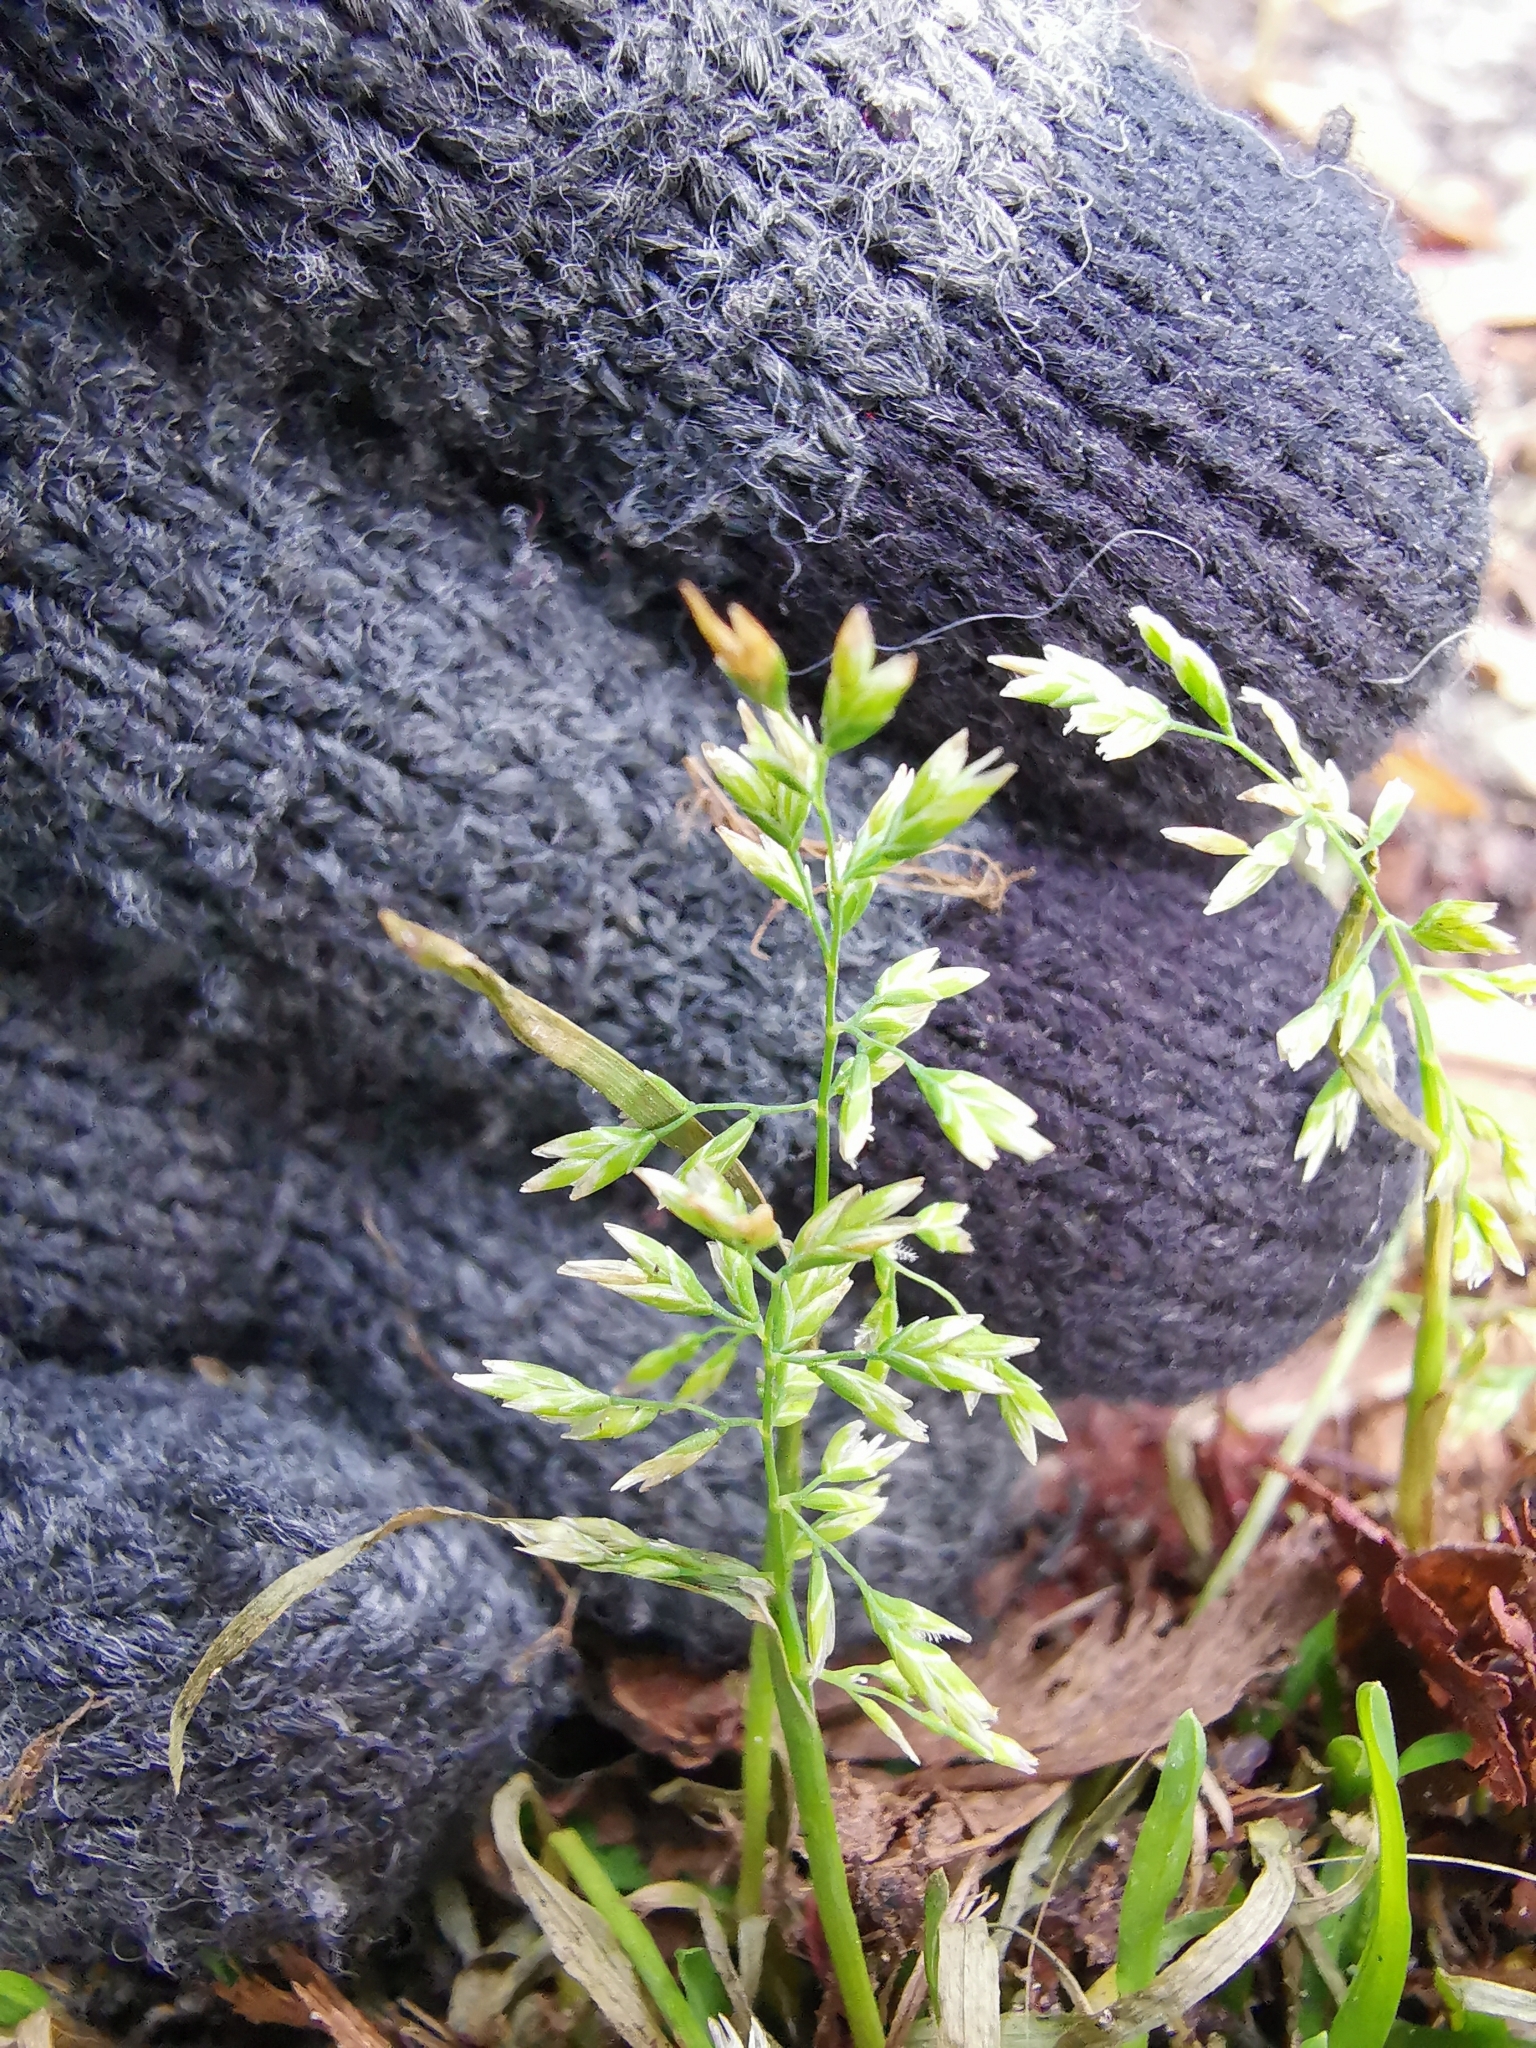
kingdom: Plantae
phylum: Tracheophyta
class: Liliopsida
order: Poales
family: Poaceae
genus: Poa
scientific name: Poa annua
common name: Annual bluegrass
